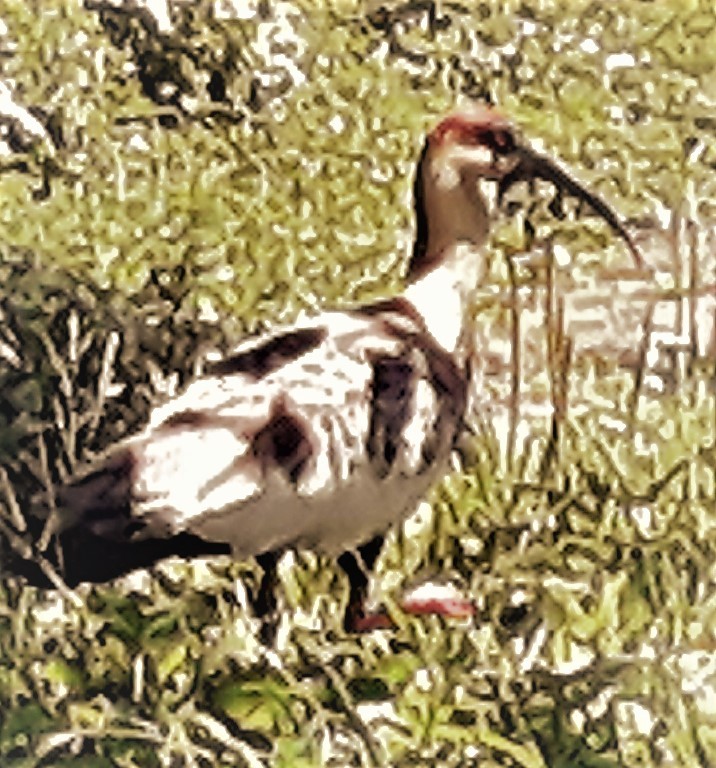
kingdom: Animalia
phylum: Chordata
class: Aves
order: Pelecaniformes
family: Threskiornithidae
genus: Theristicus
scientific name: Theristicus caudatus
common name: Buff-necked ibis
